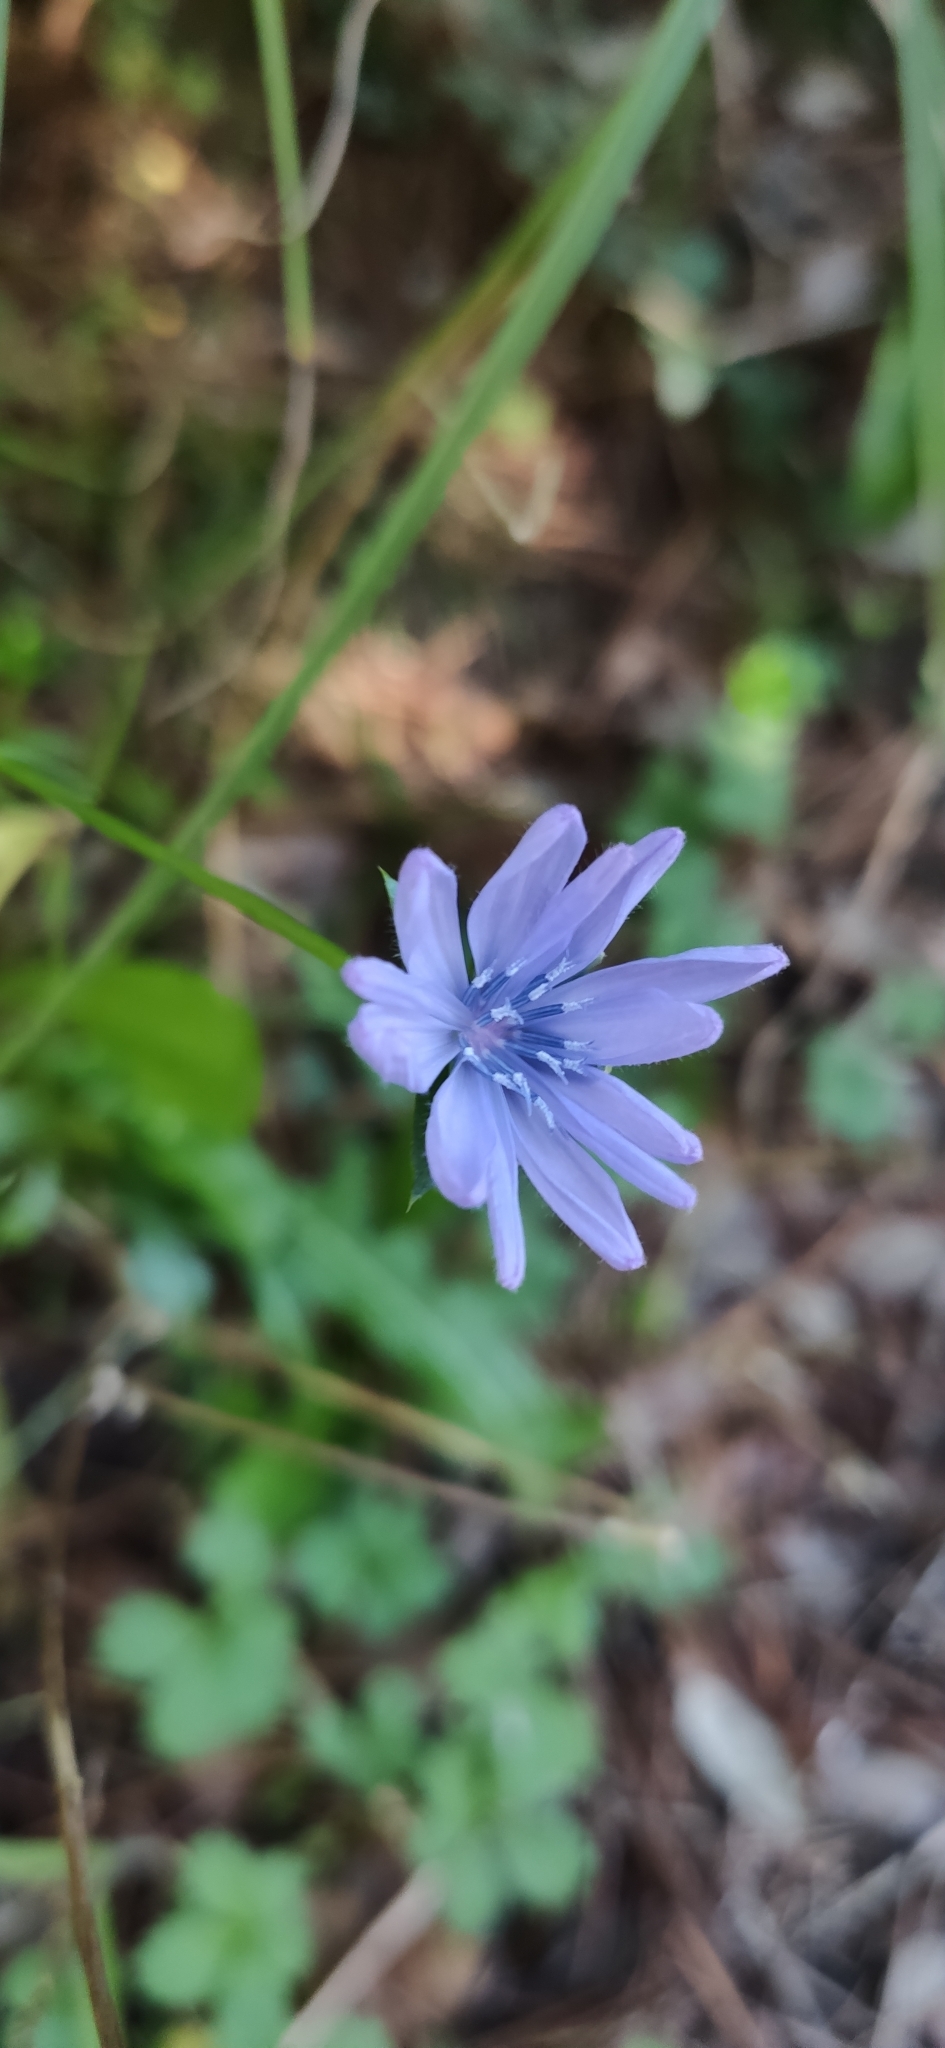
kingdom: Plantae
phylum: Tracheophyta
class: Magnoliopsida
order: Asterales
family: Asteraceae
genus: Cichorium
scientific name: Cichorium intybus
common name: Chicory
